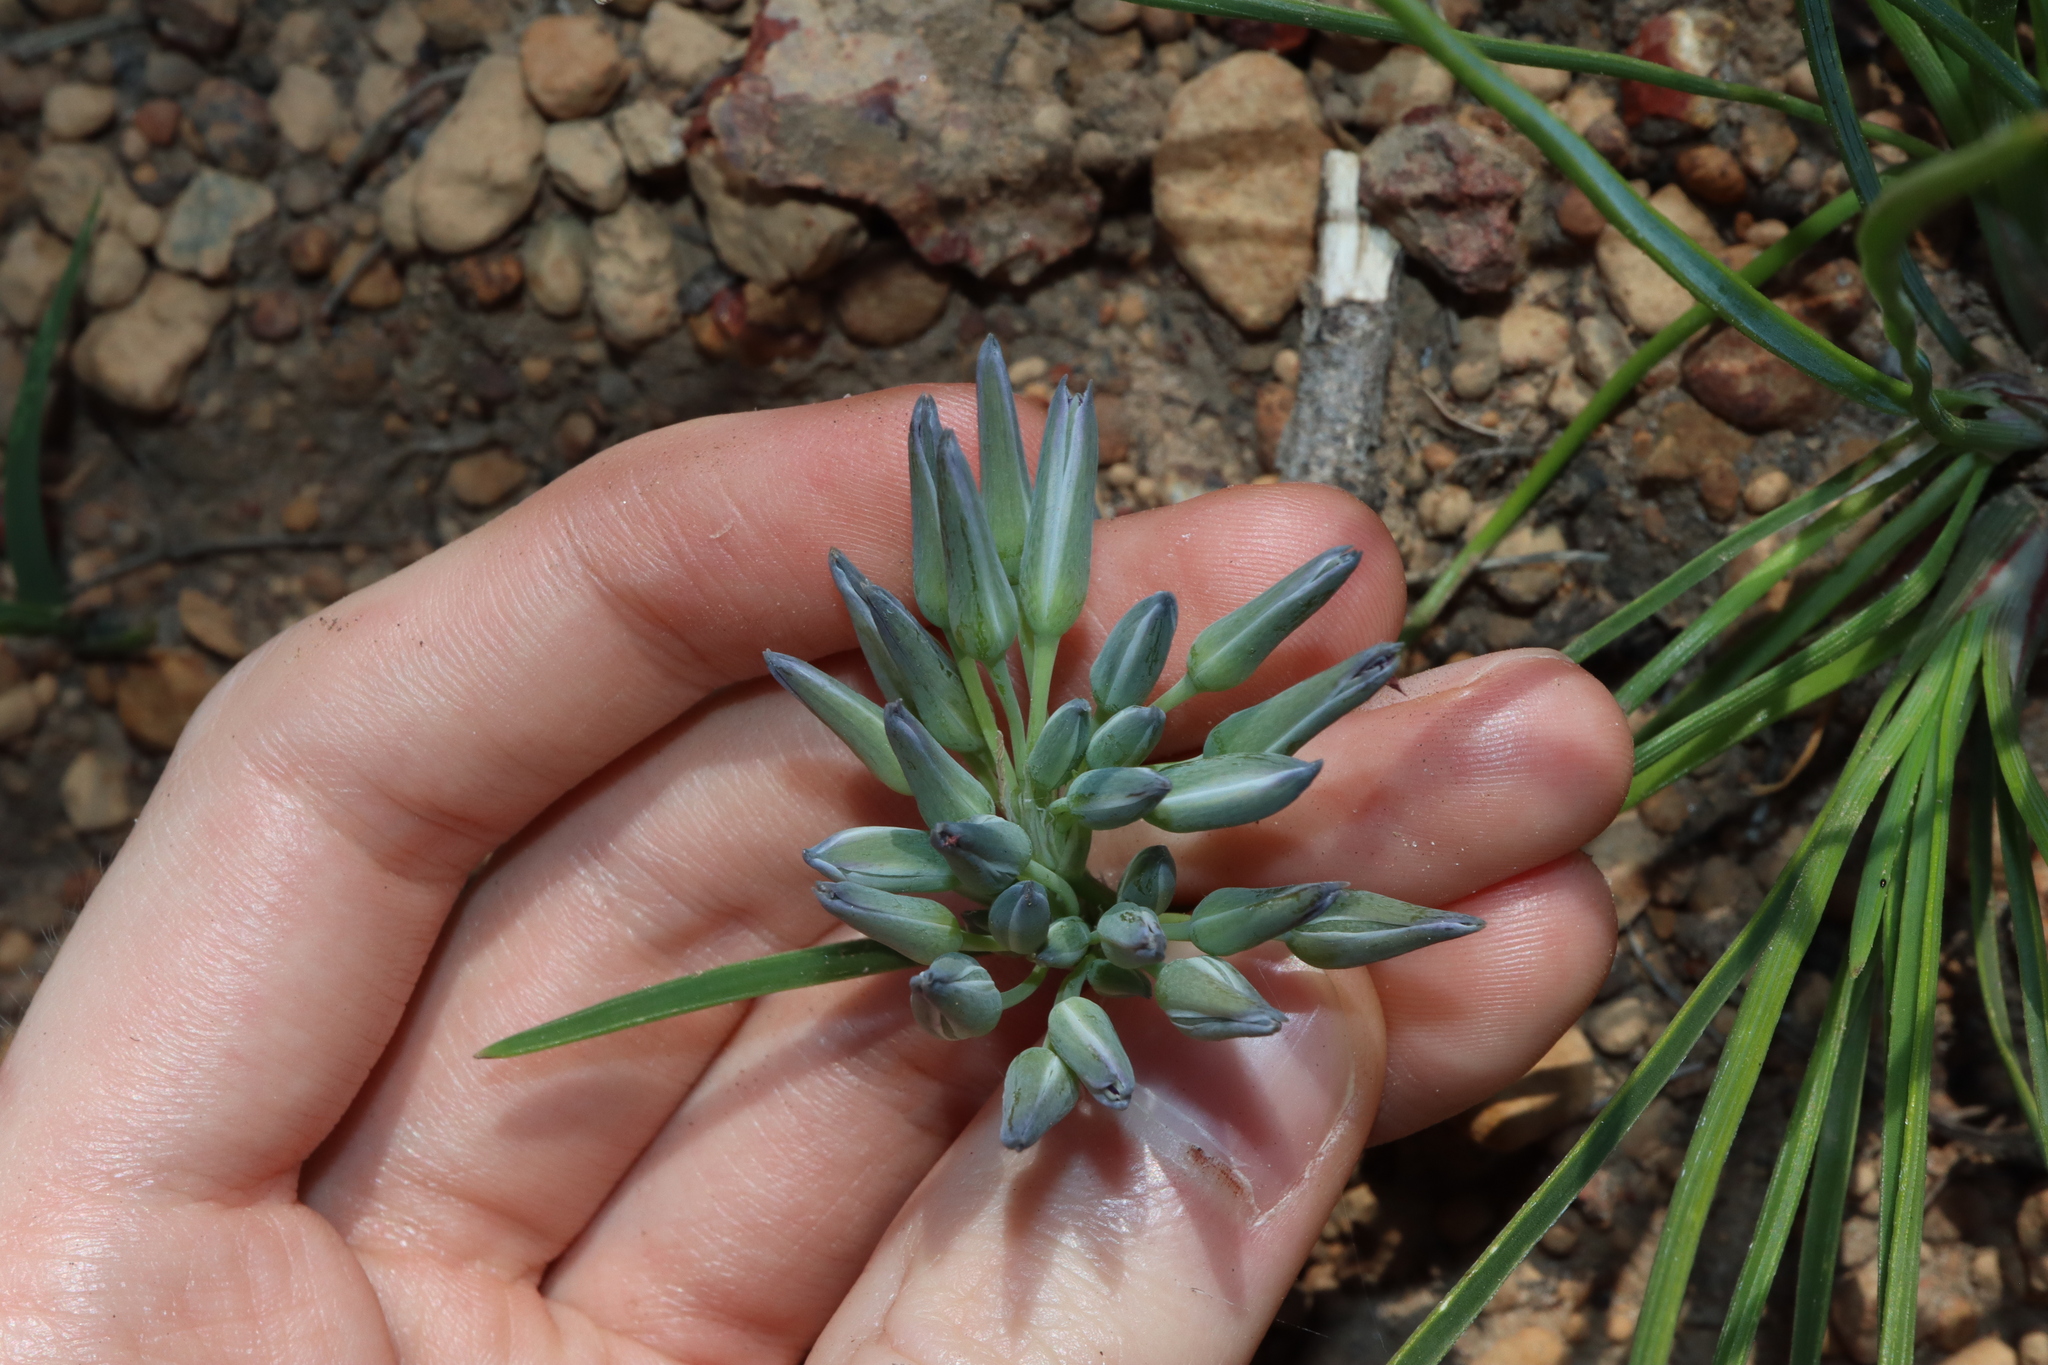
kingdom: Plantae
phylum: Tracheophyta
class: Liliopsida
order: Asparagales
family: Asparagaceae
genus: Thysanotus
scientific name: Thysanotus multiflorus
